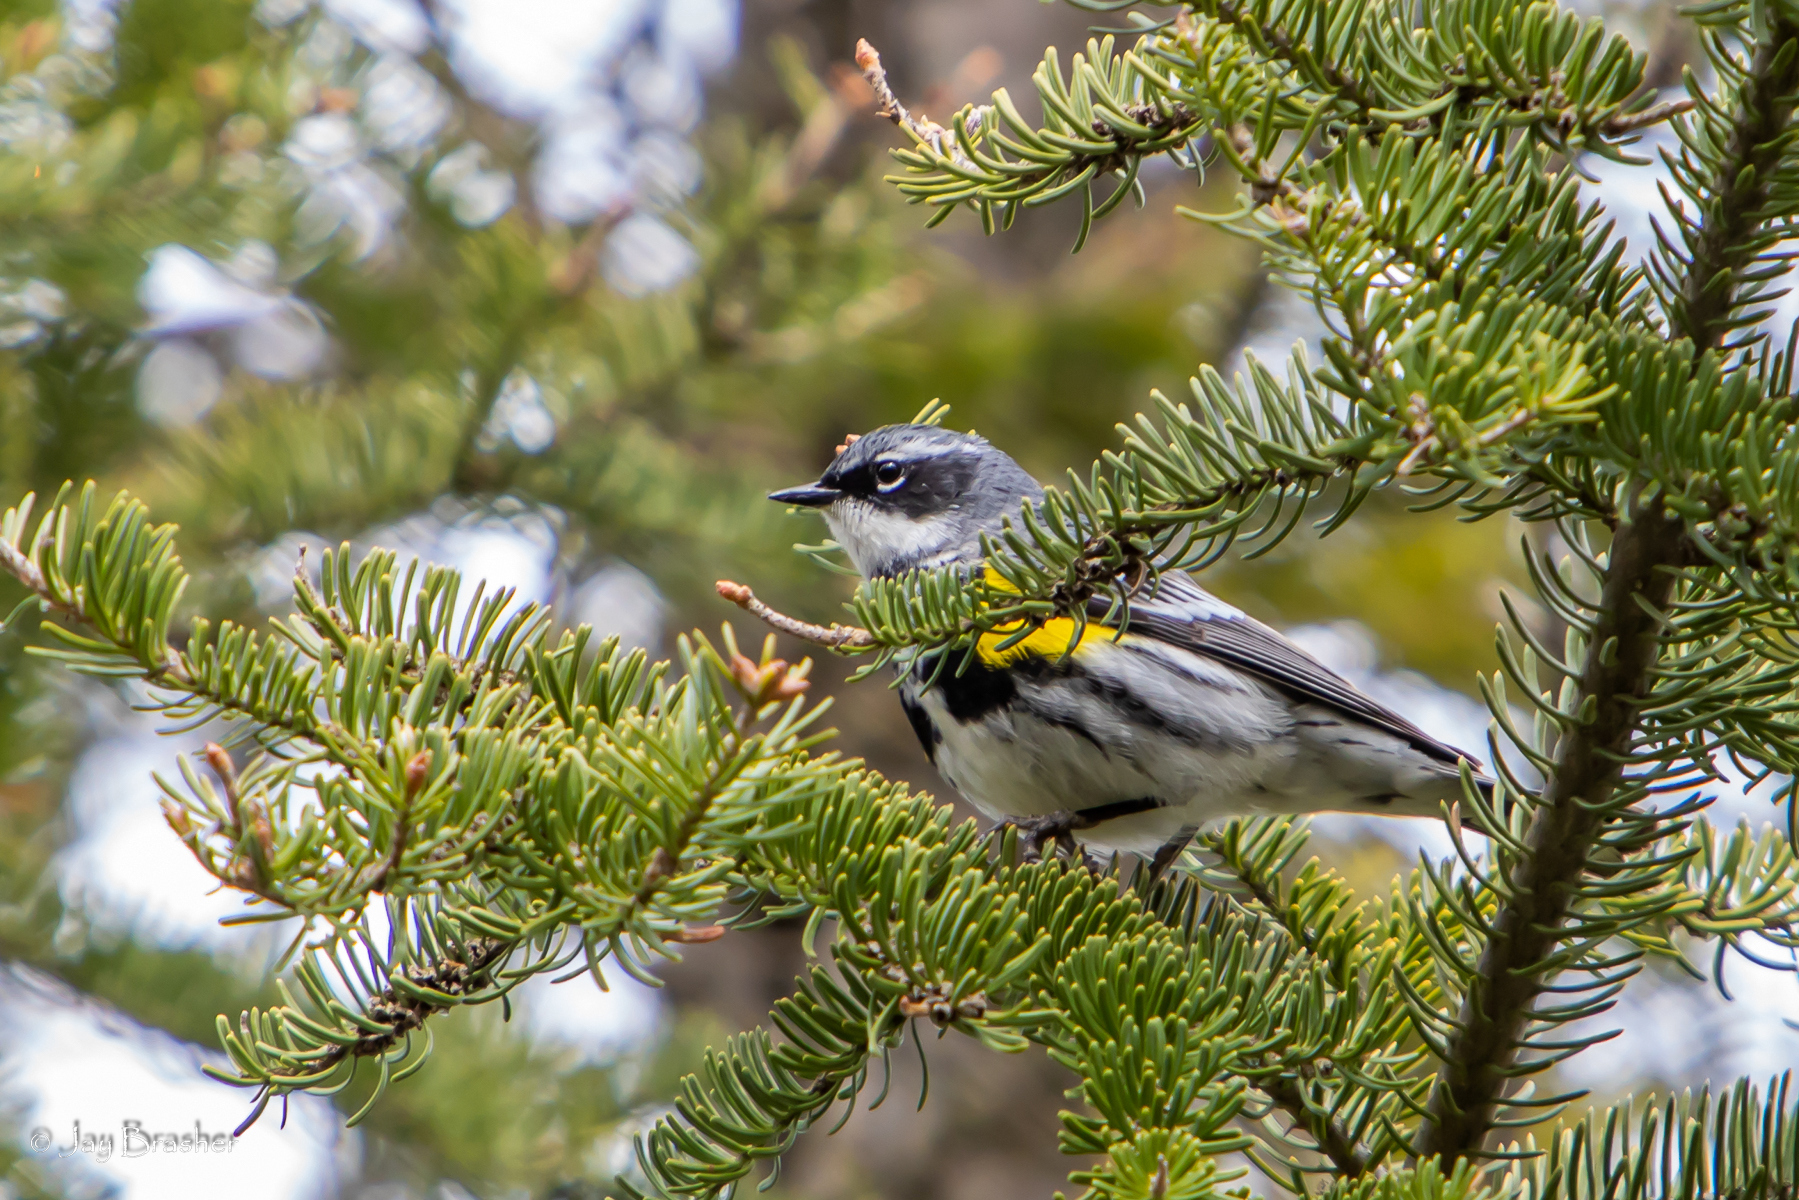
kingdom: Animalia
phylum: Chordata
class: Aves
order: Passeriformes
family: Parulidae
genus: Setophaga
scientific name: Setophaga coronata
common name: Myrtle warbler
